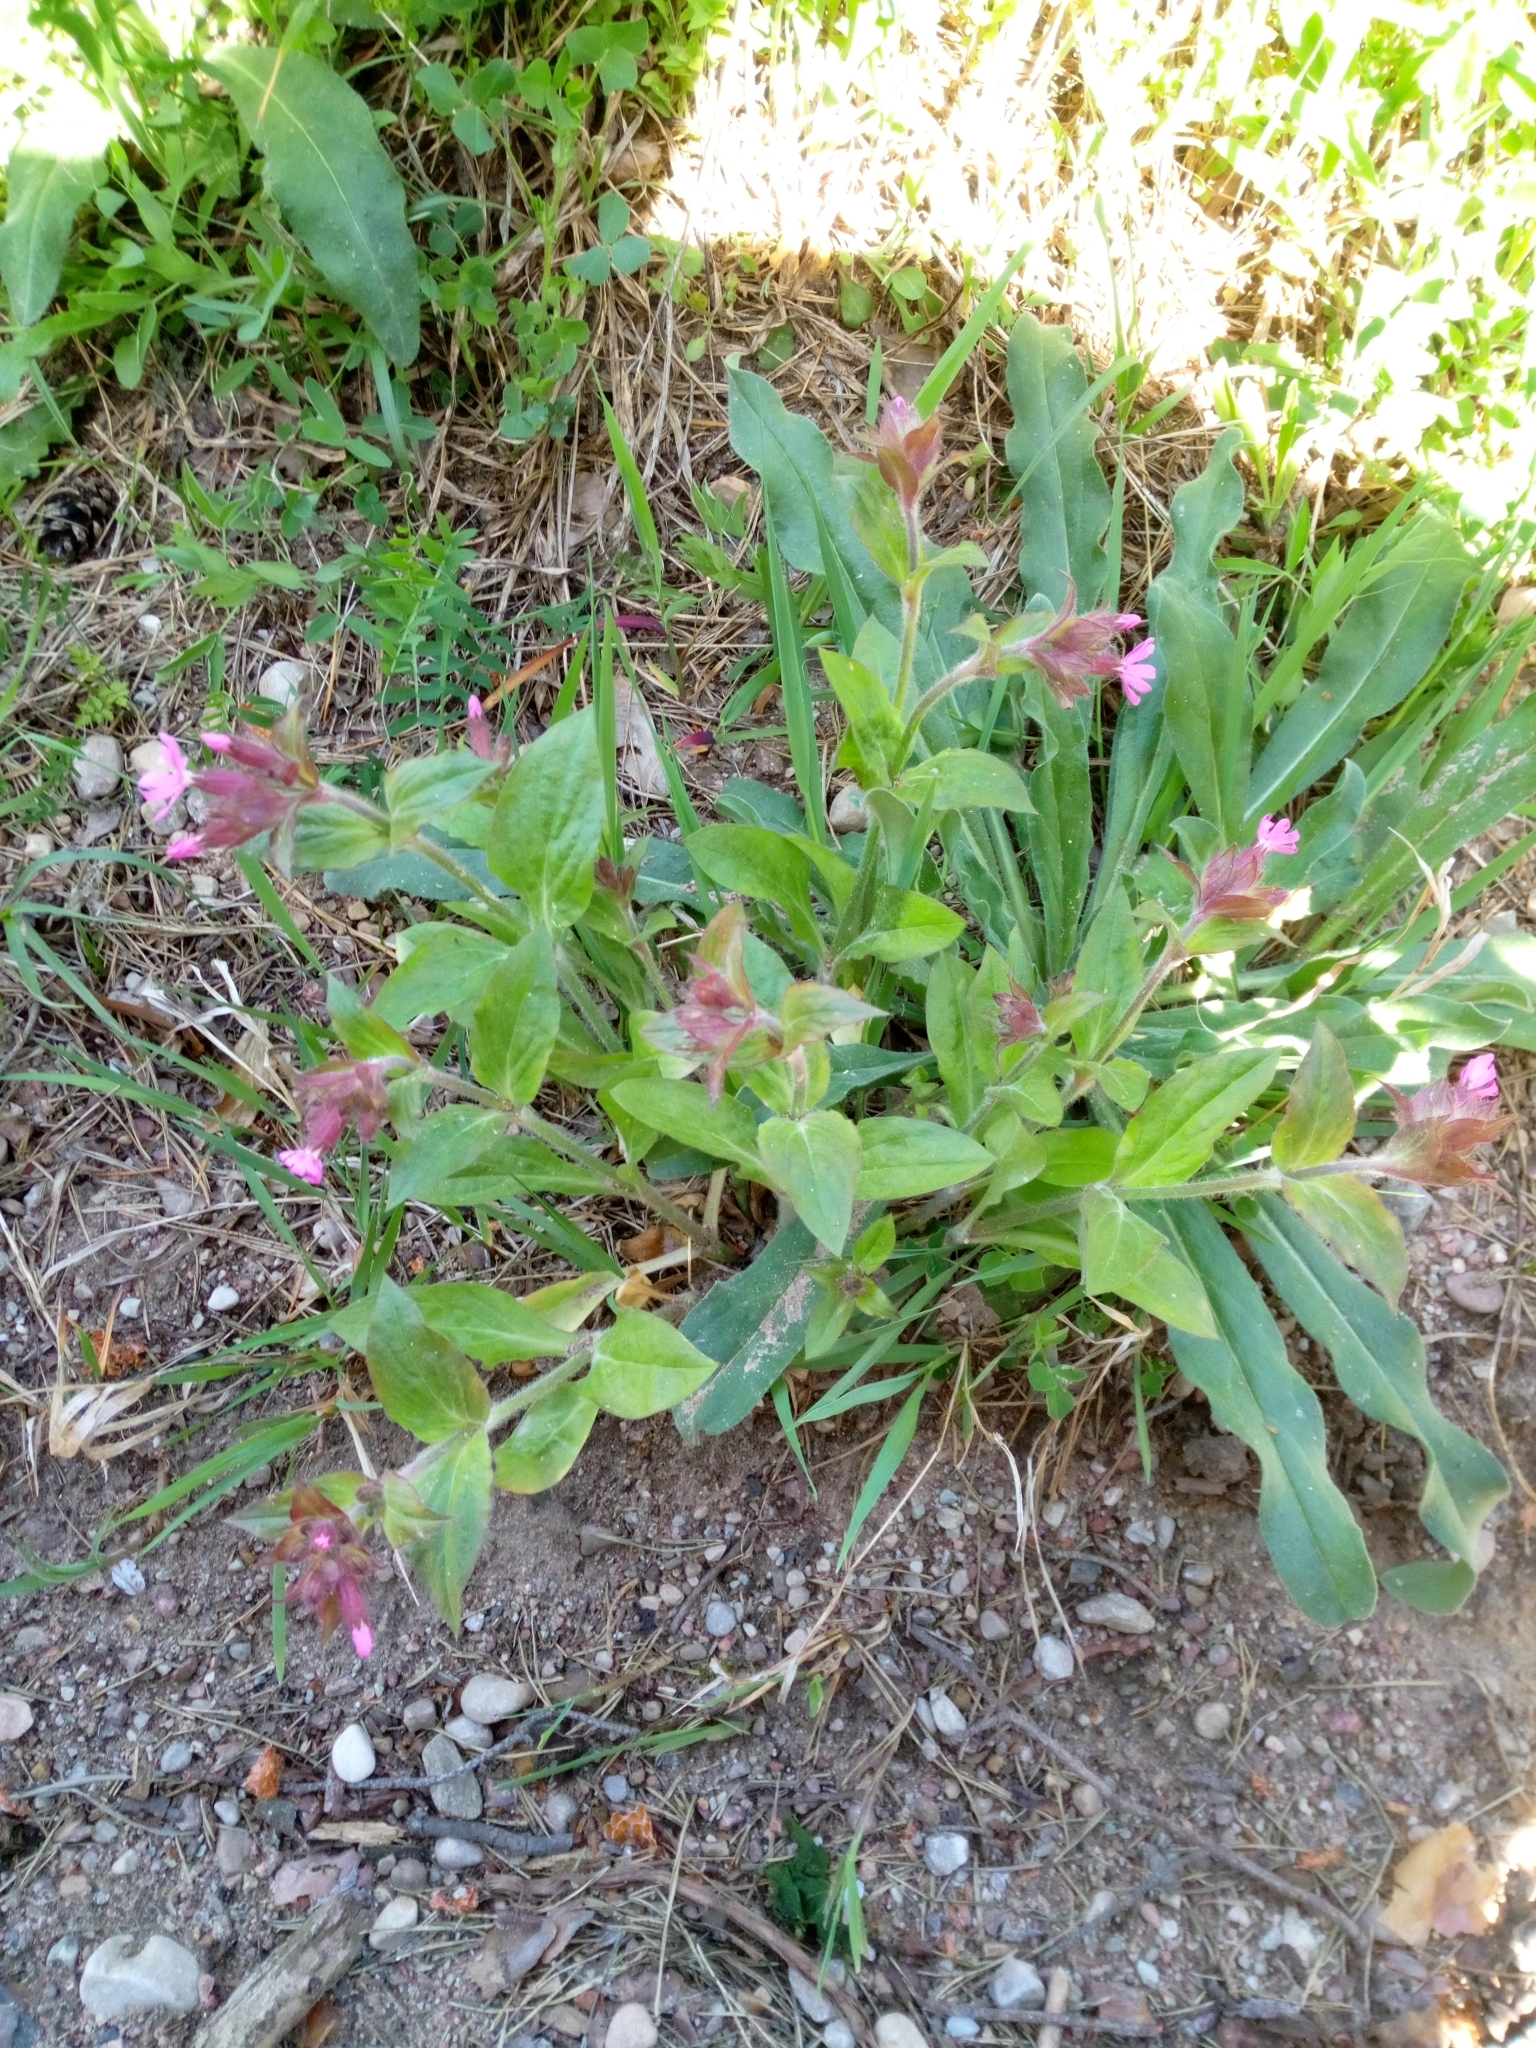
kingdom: Plantae
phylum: Tracheophyta
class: Magnoliopsida
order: Caryophyllales
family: Caryophyllaceae
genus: Silene
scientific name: Silene dioica
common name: Red campion
